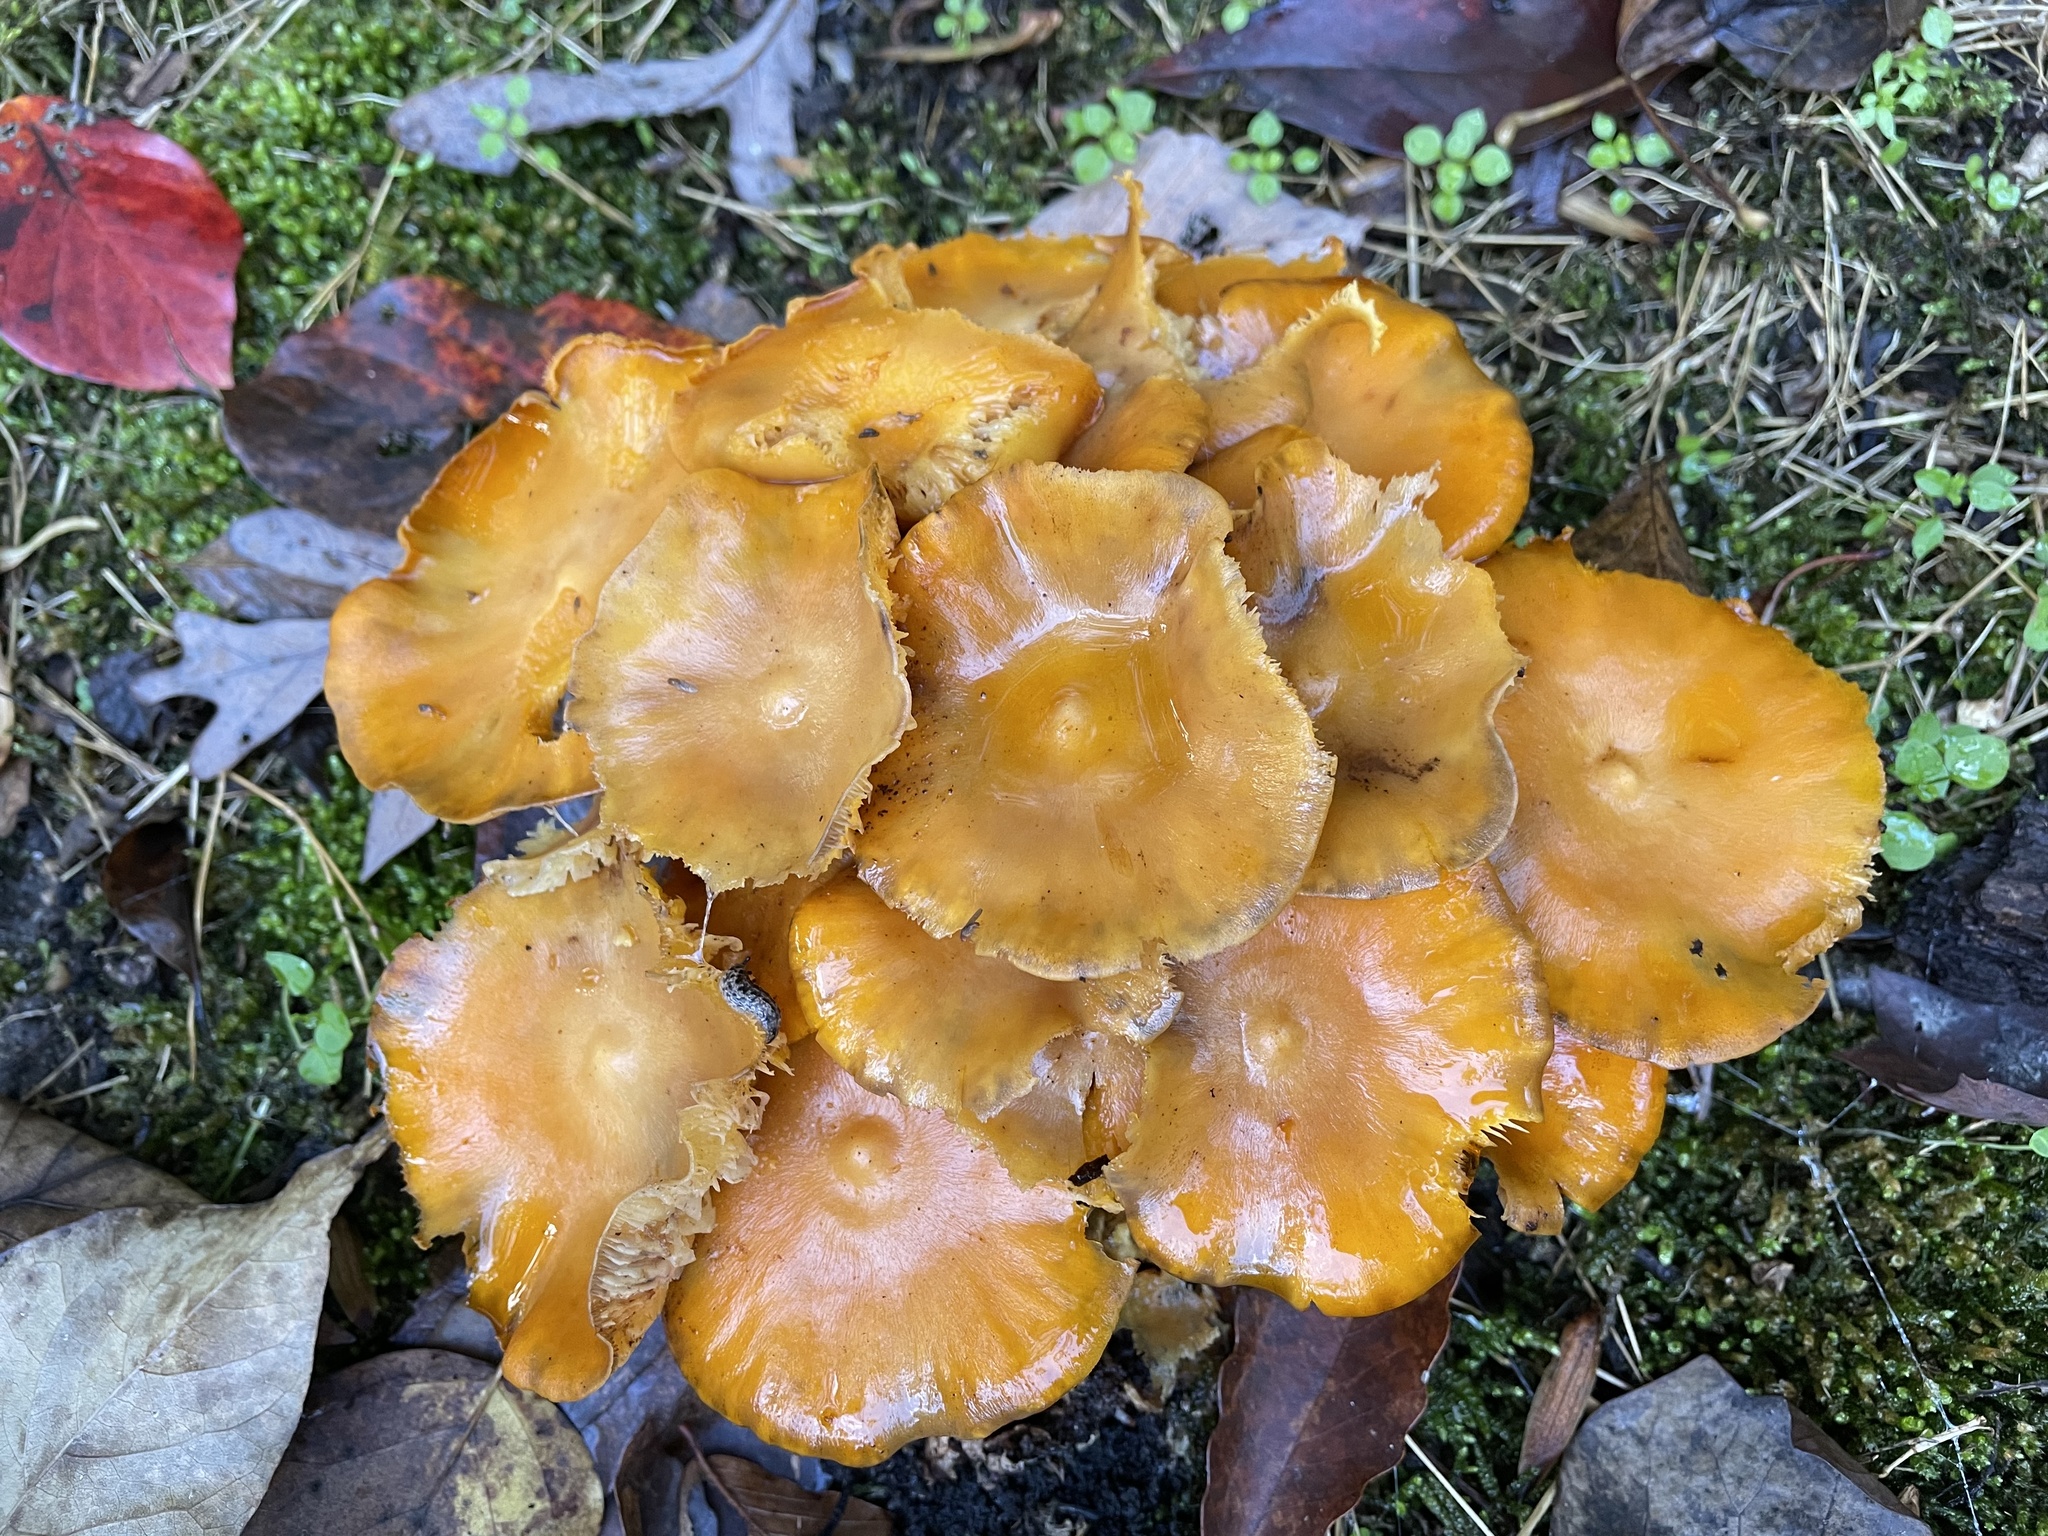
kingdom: Fungi
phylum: Basidiomycota
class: Agaricomycetes
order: Agaricales
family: Omphalotaceae
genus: Omphalotus
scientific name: Omphalotus illudens
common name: Jack o lantern
